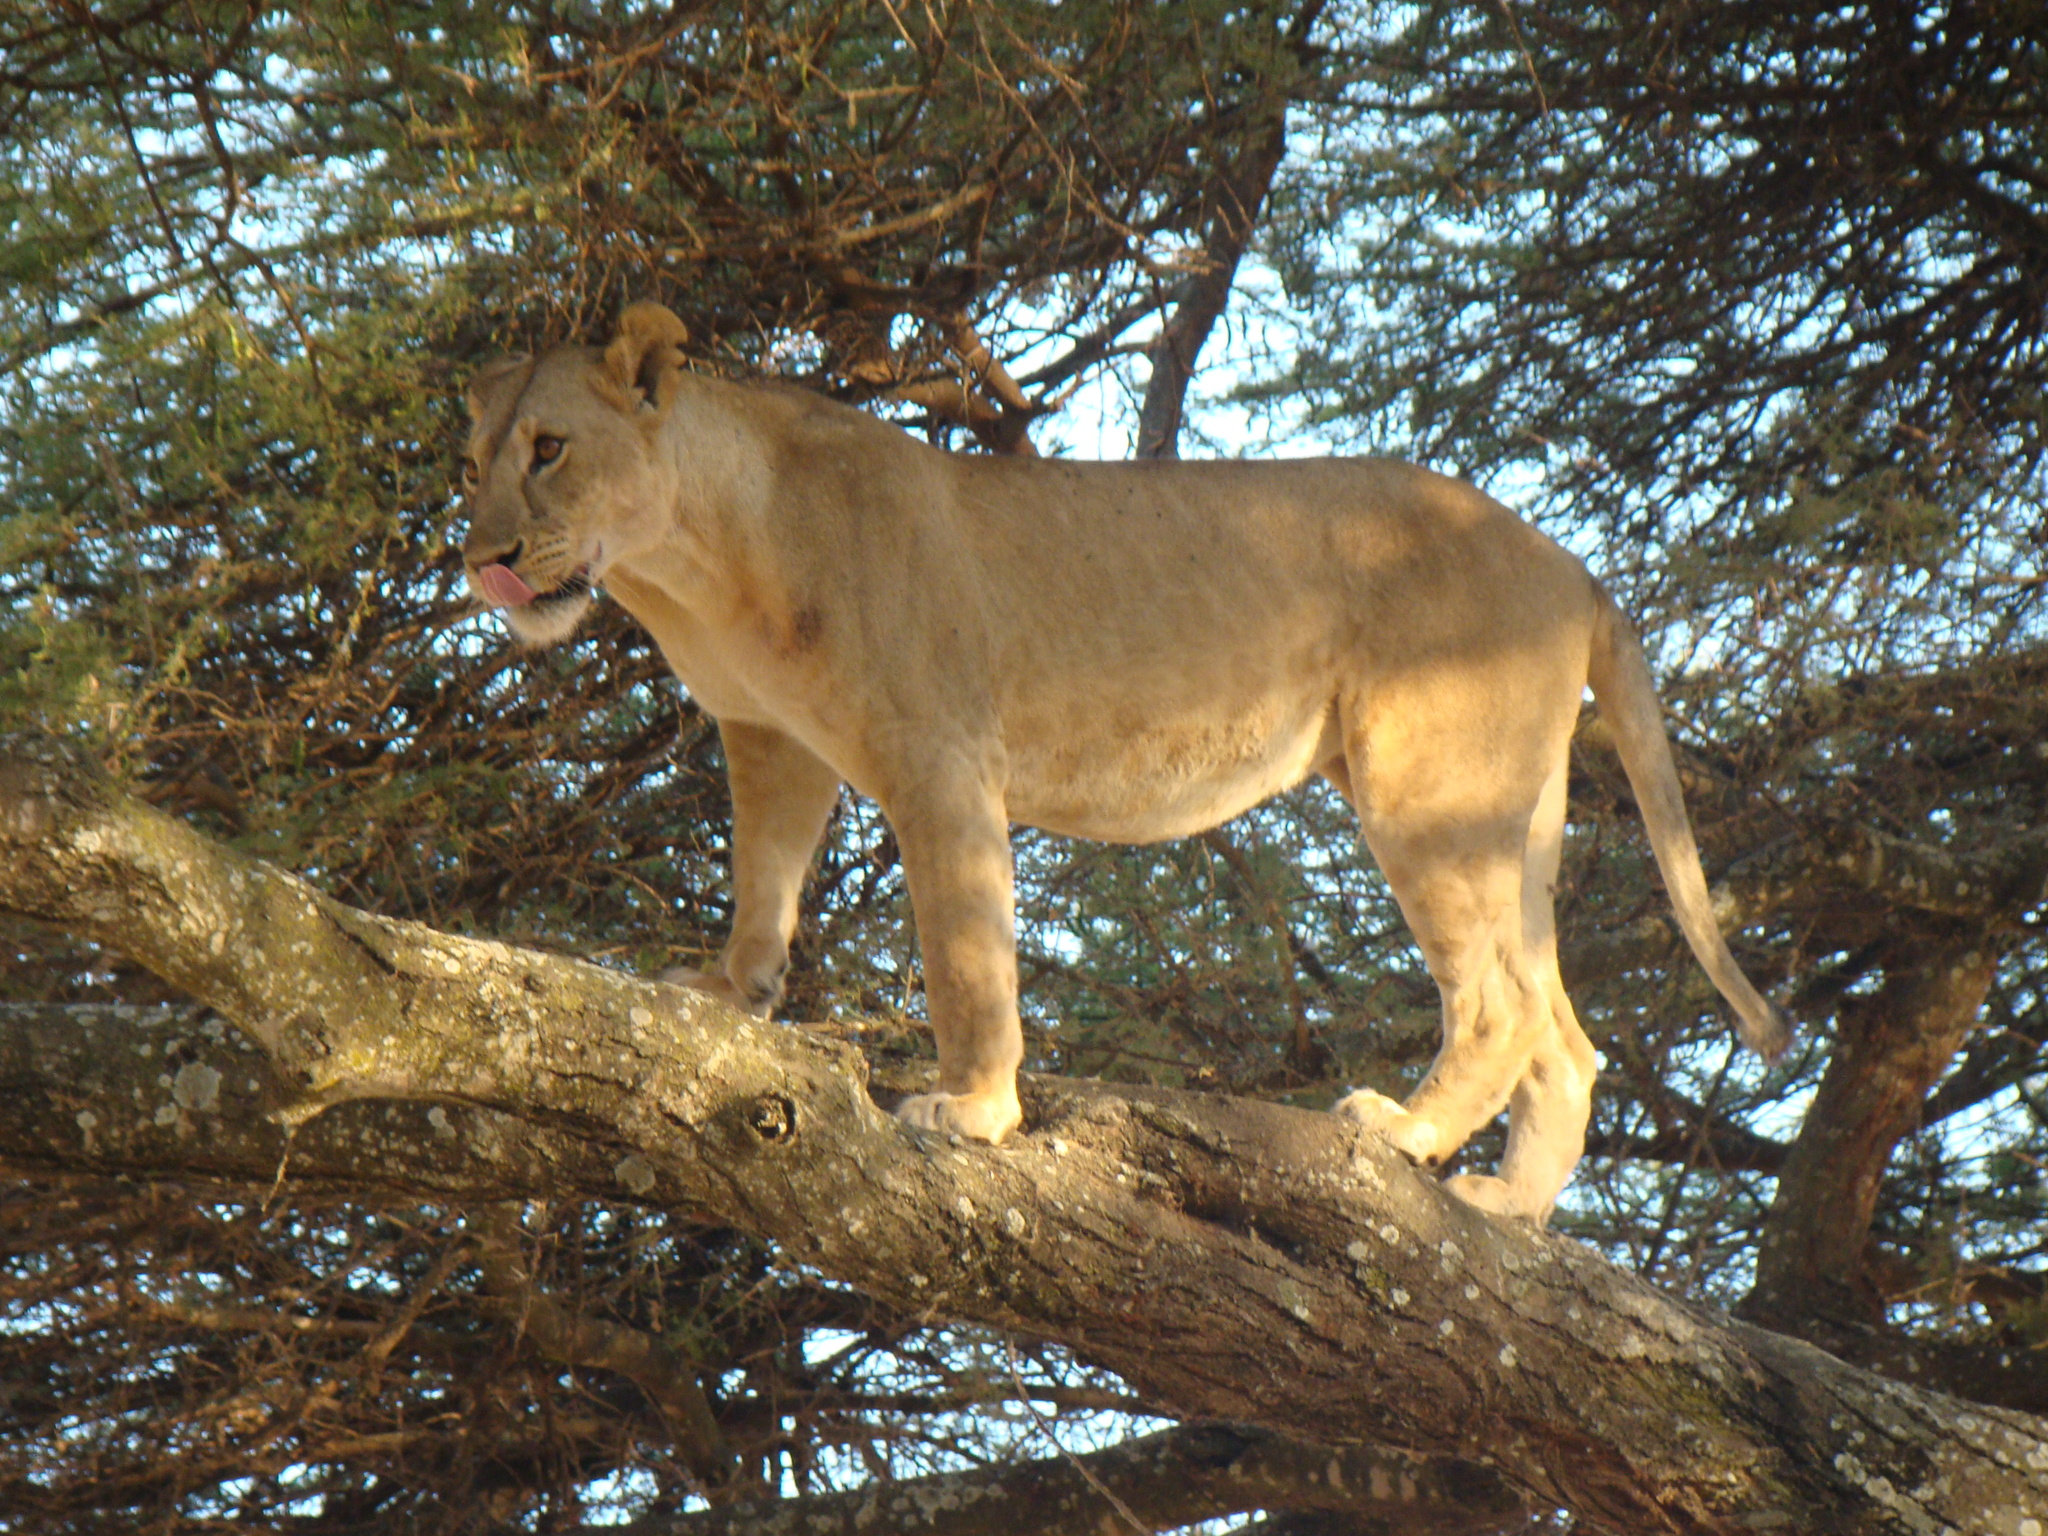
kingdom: Animalia
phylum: Chordata
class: Mammalia
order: Carnivora
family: Felidae
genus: Panthera
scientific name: Panthera leo
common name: Lion
